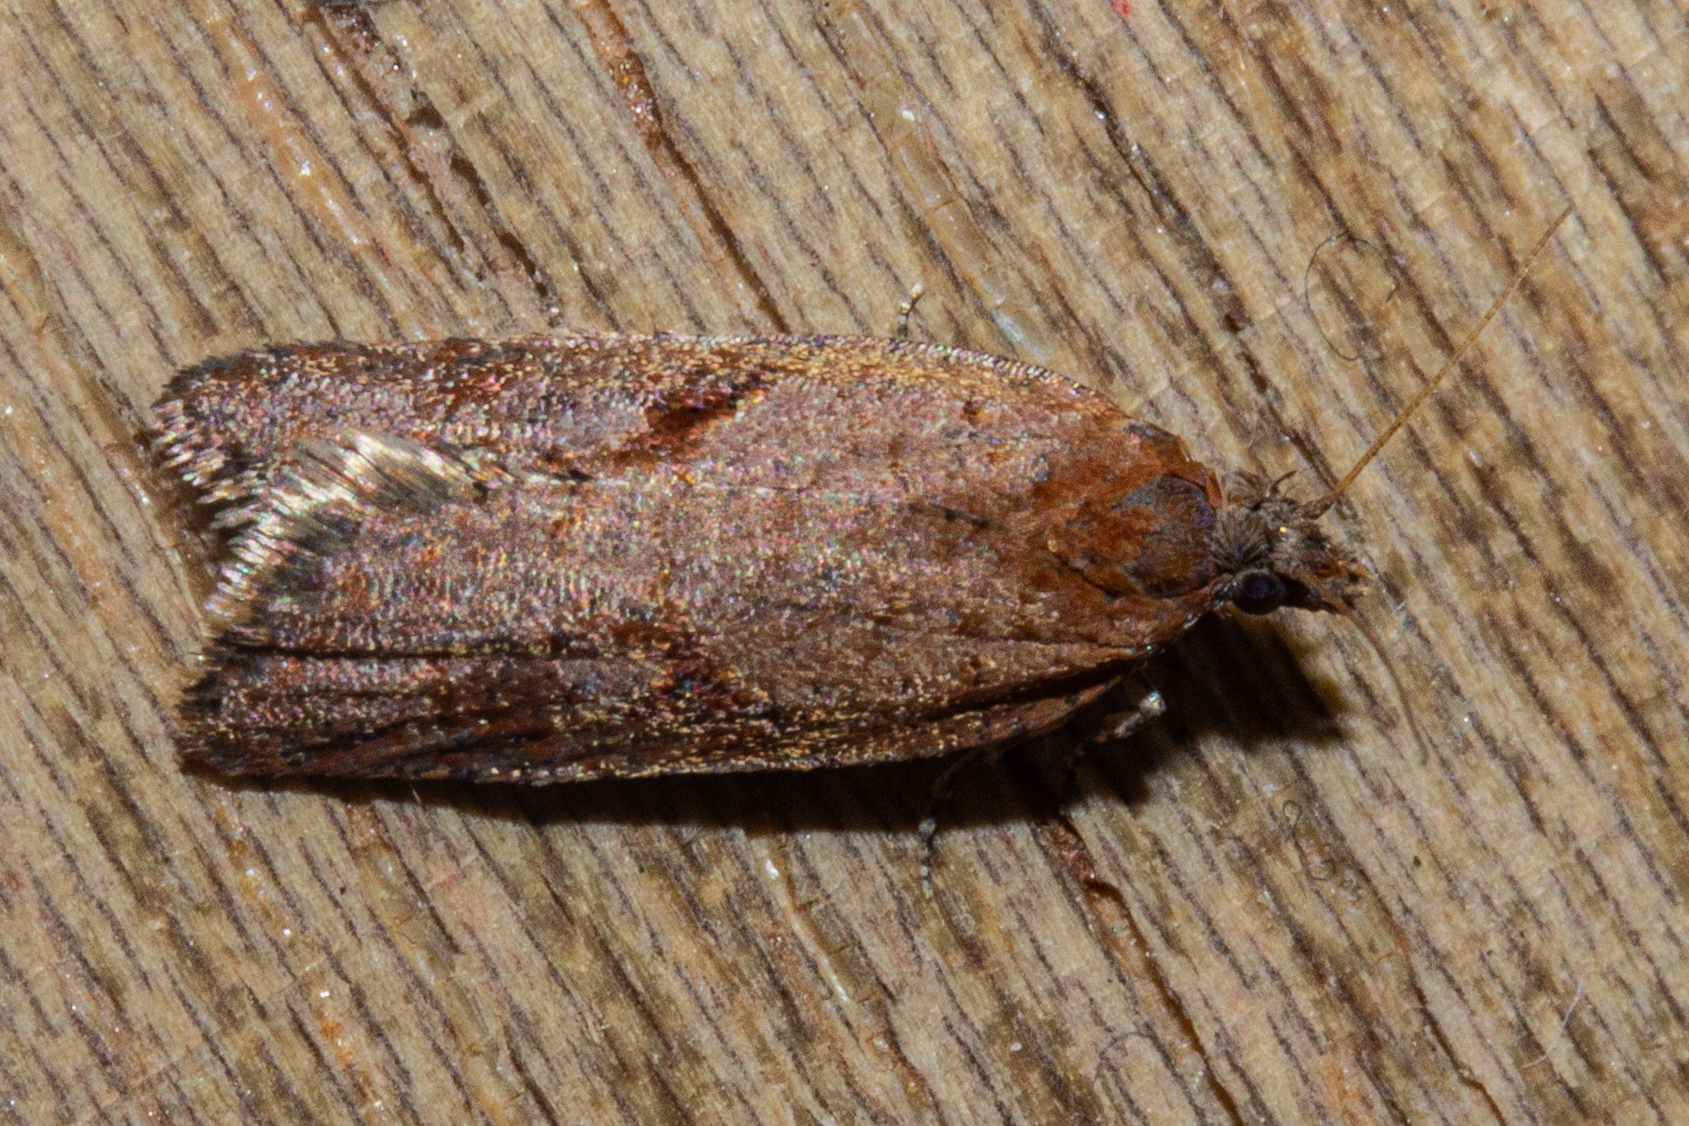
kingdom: Animalia
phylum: Arthropoda
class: Insecta
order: Lepidoptera
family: Tortricidae
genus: Capua
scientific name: Capua semiferana
